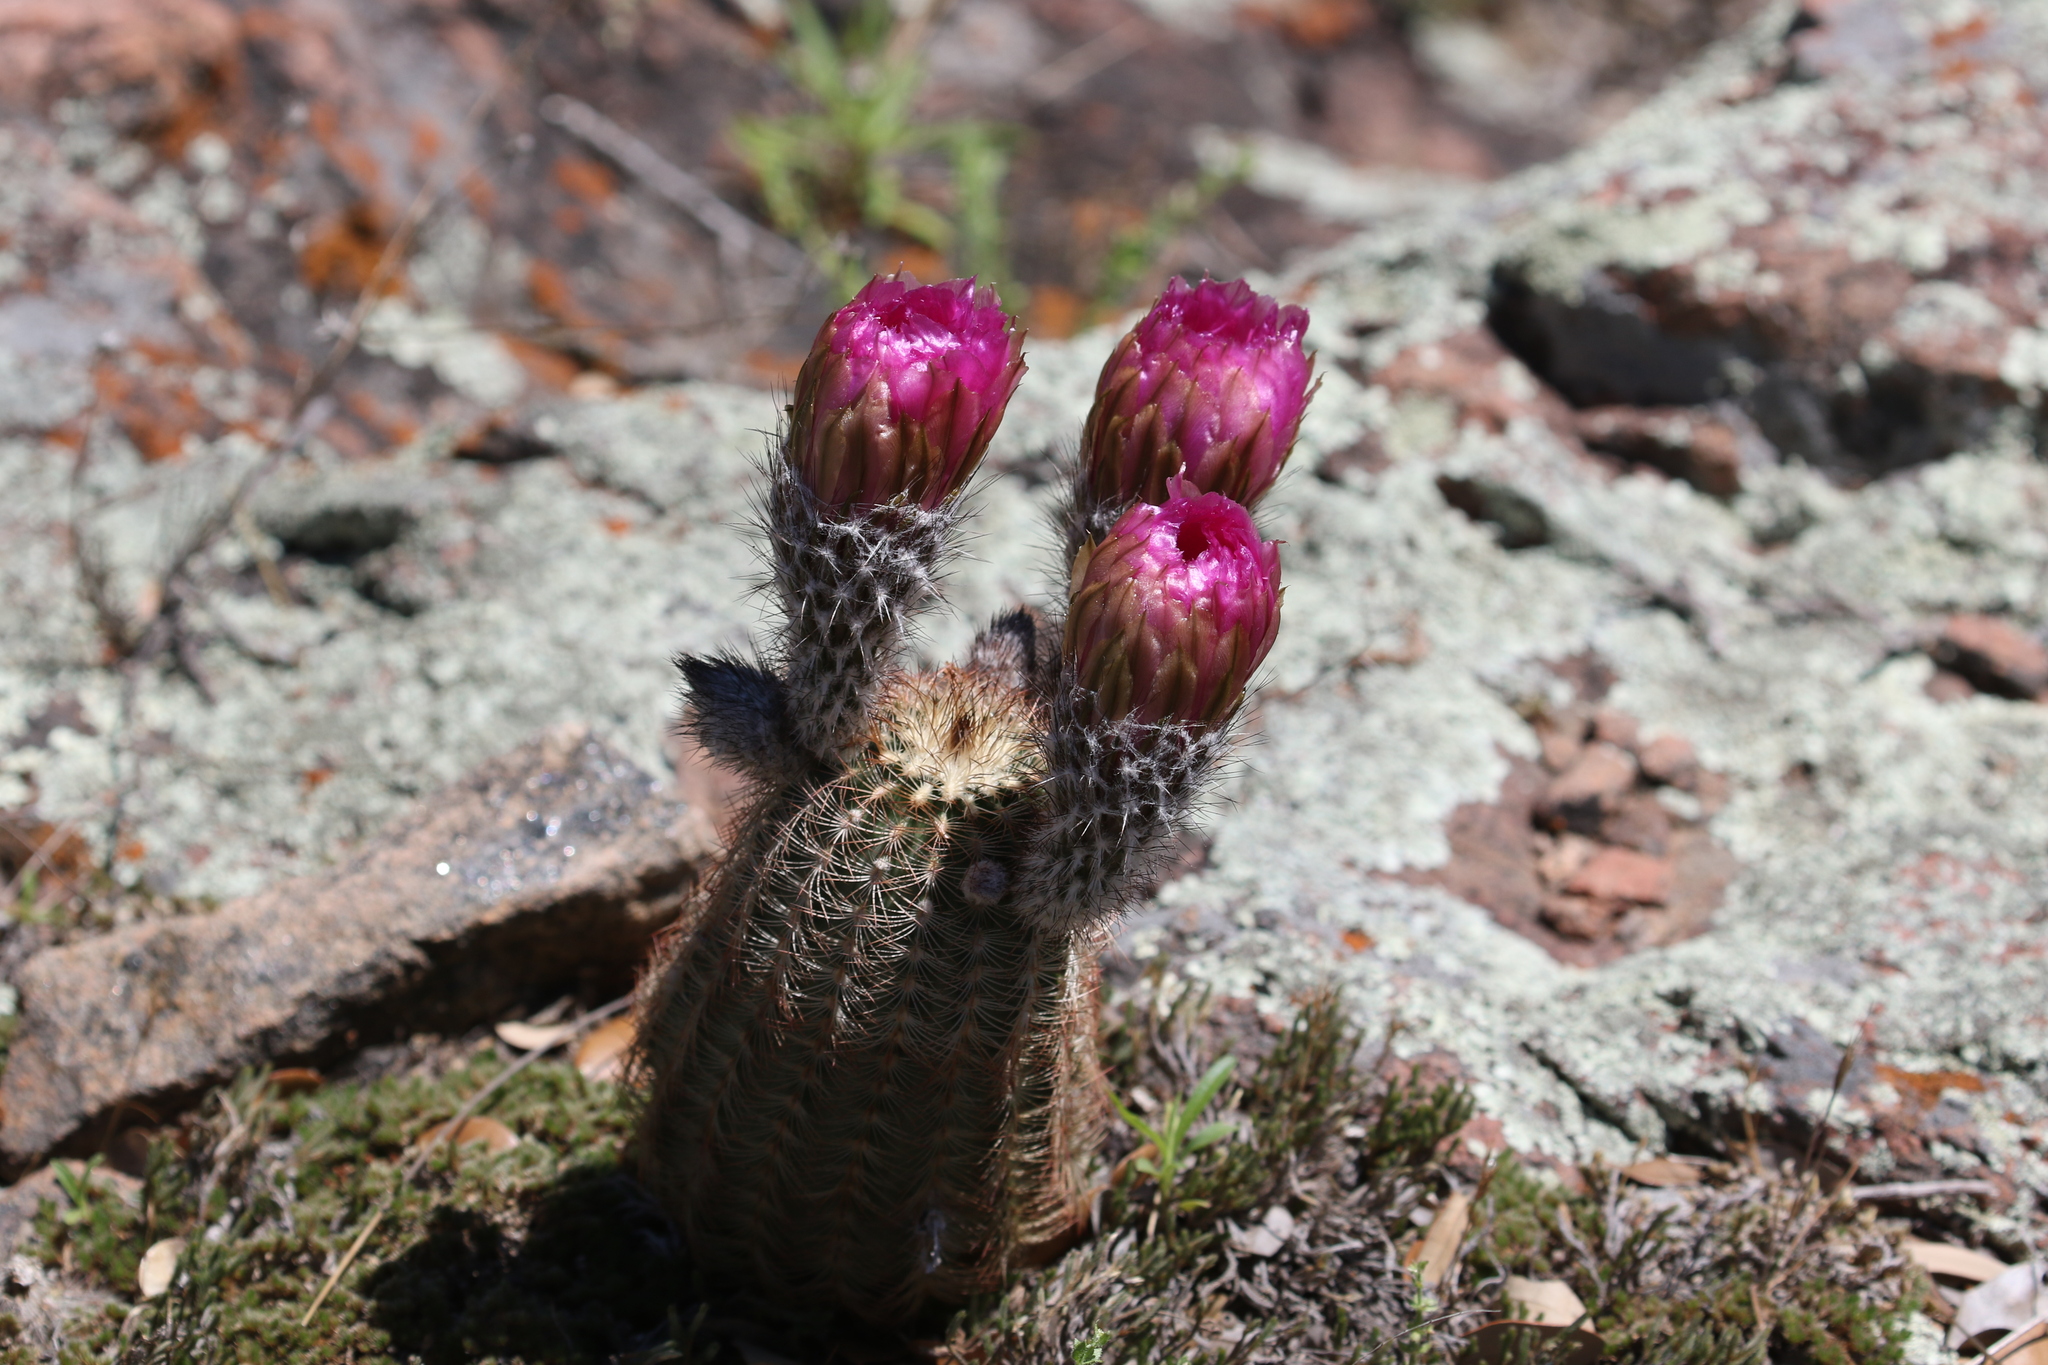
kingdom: Plantae
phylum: Tracheophyta
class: Magnoliopsida
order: Caryophyllales
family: Cactaceae
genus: Echinocereus
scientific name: Echinocereus reichenbachii
